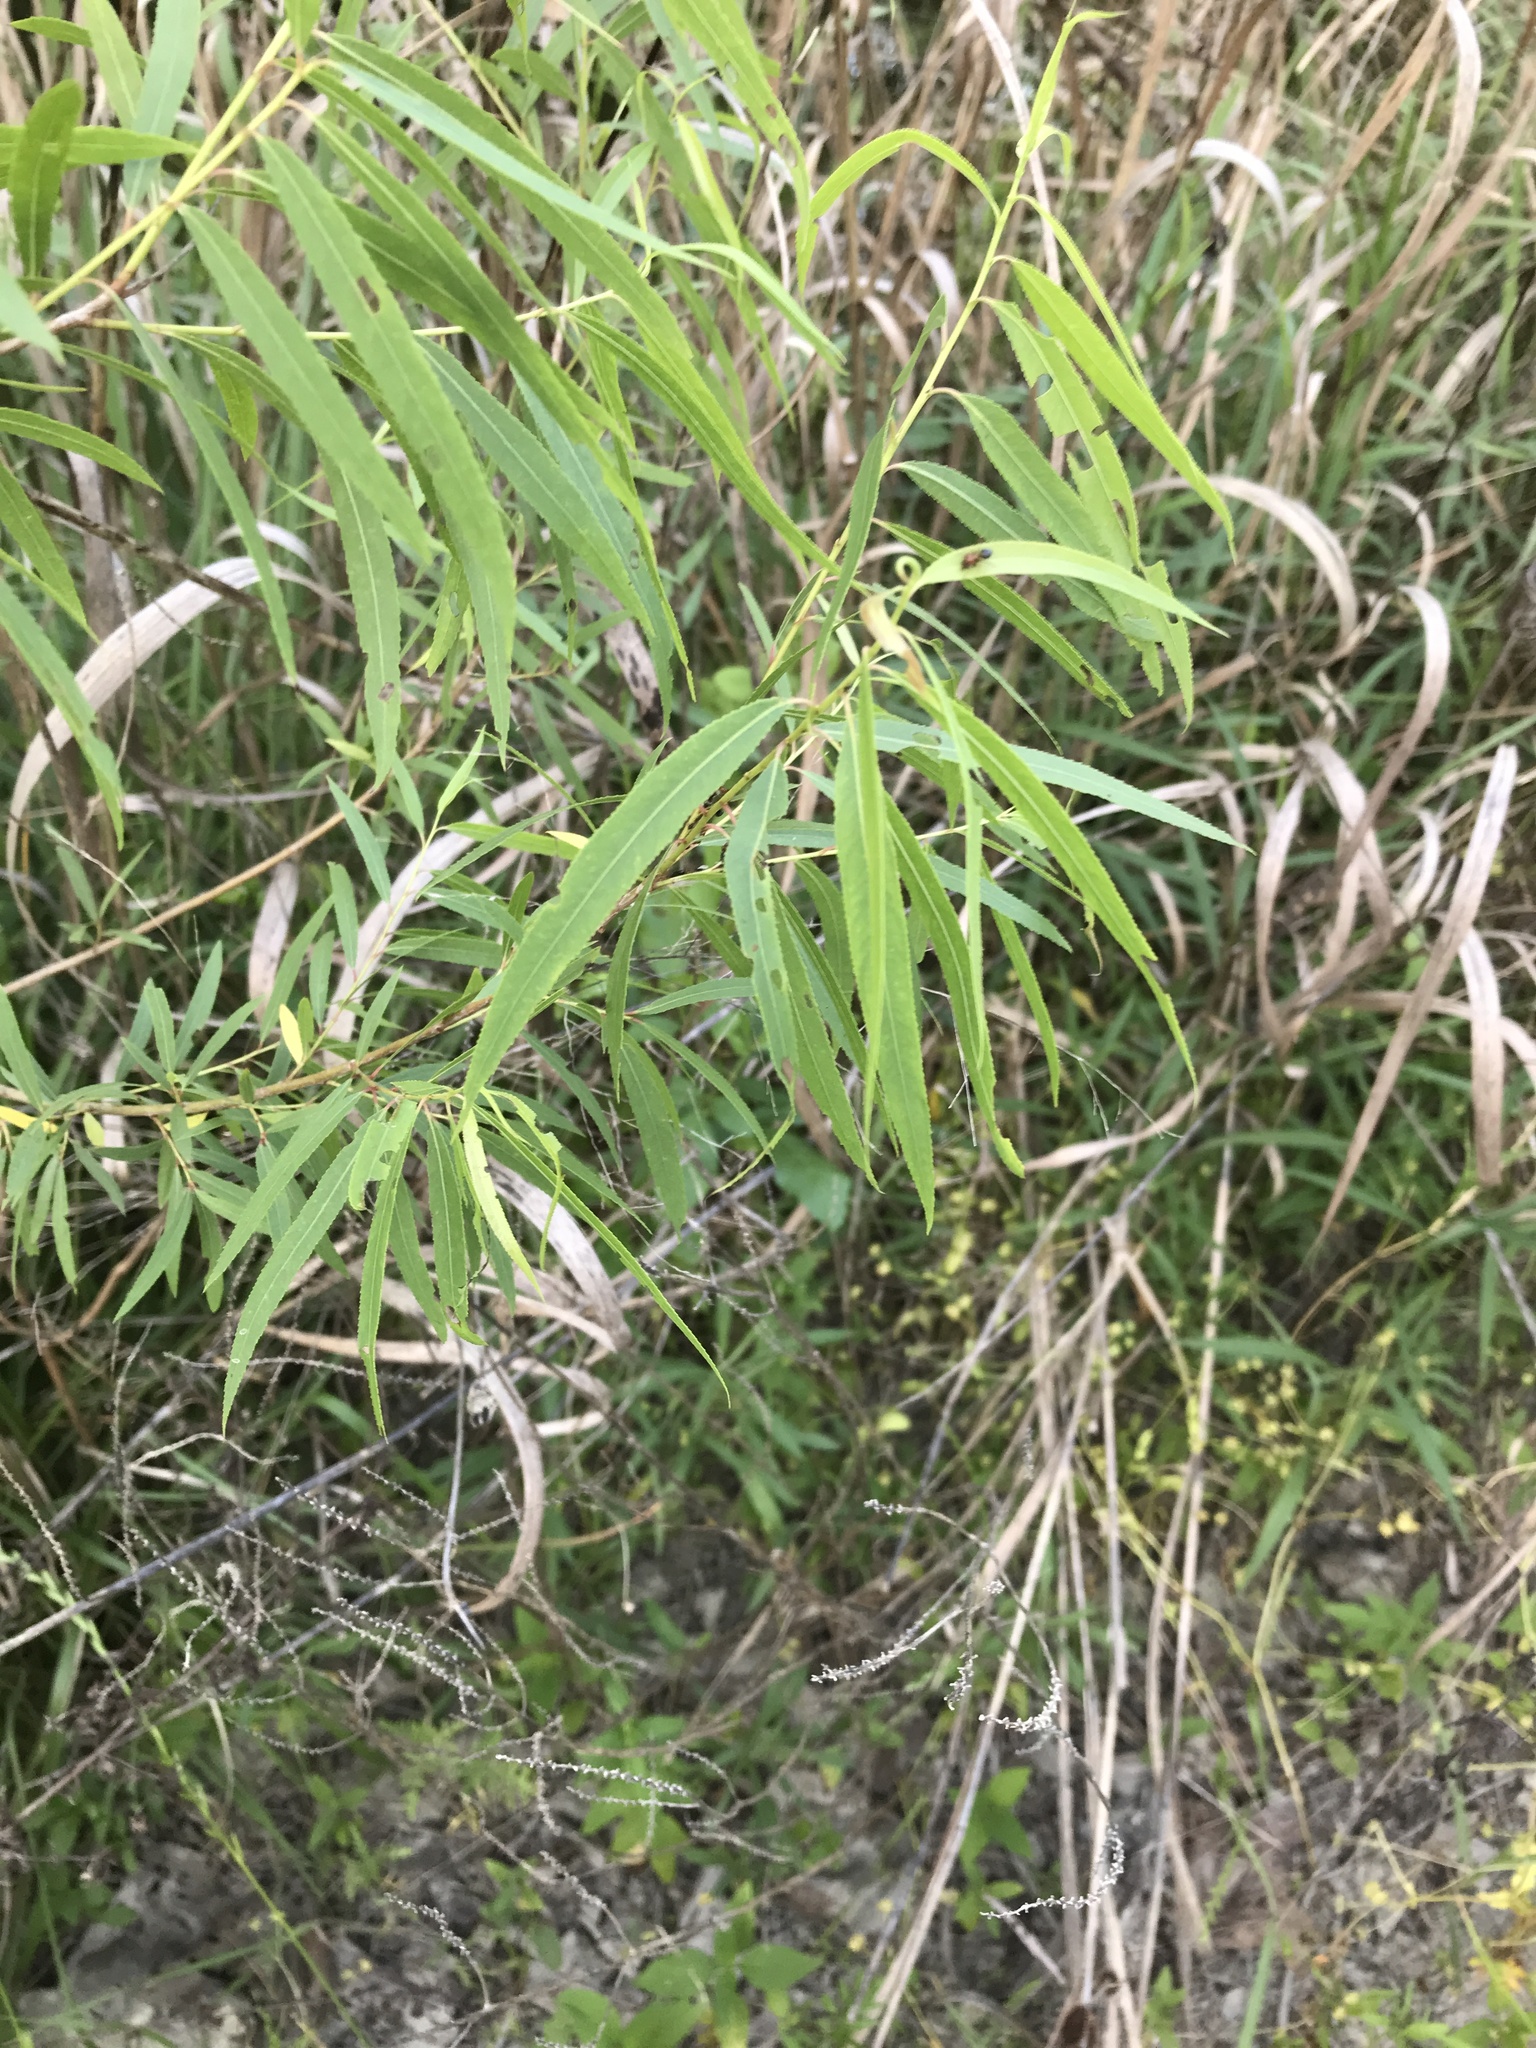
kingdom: Plantae
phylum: Tracheophyta
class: Magnoliopsida
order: Malpighiales
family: Salicaceae
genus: Salix
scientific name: Salix nigra
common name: Black willow
